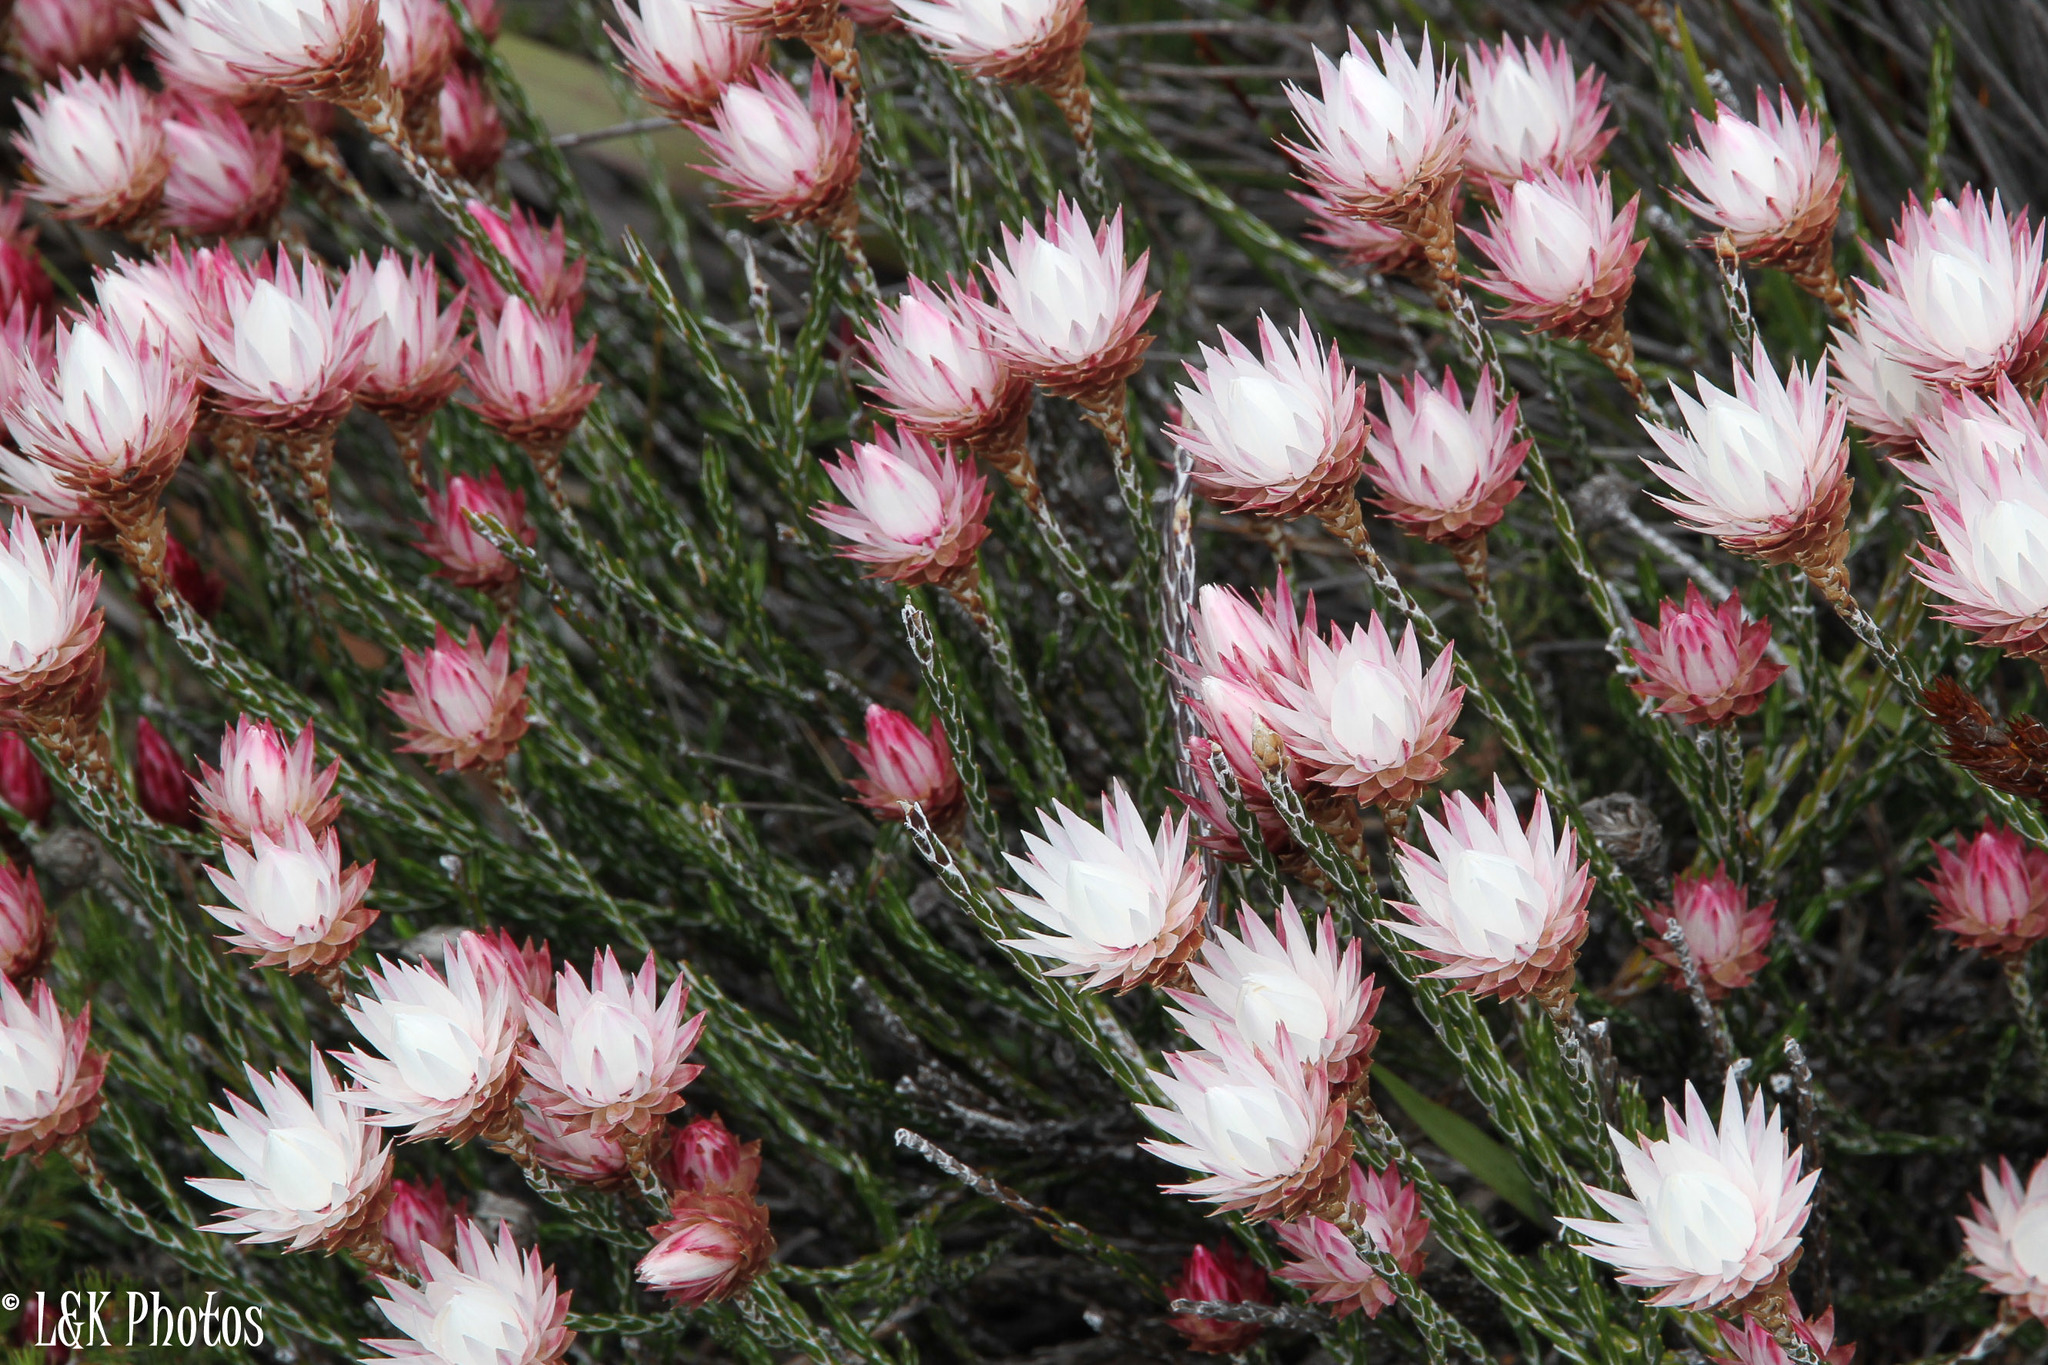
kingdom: Plantae
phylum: Tracheophyta
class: Magnoliopsida
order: Asterales
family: Asteraceae
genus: Edmondia
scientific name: Edmondia pinifolia
